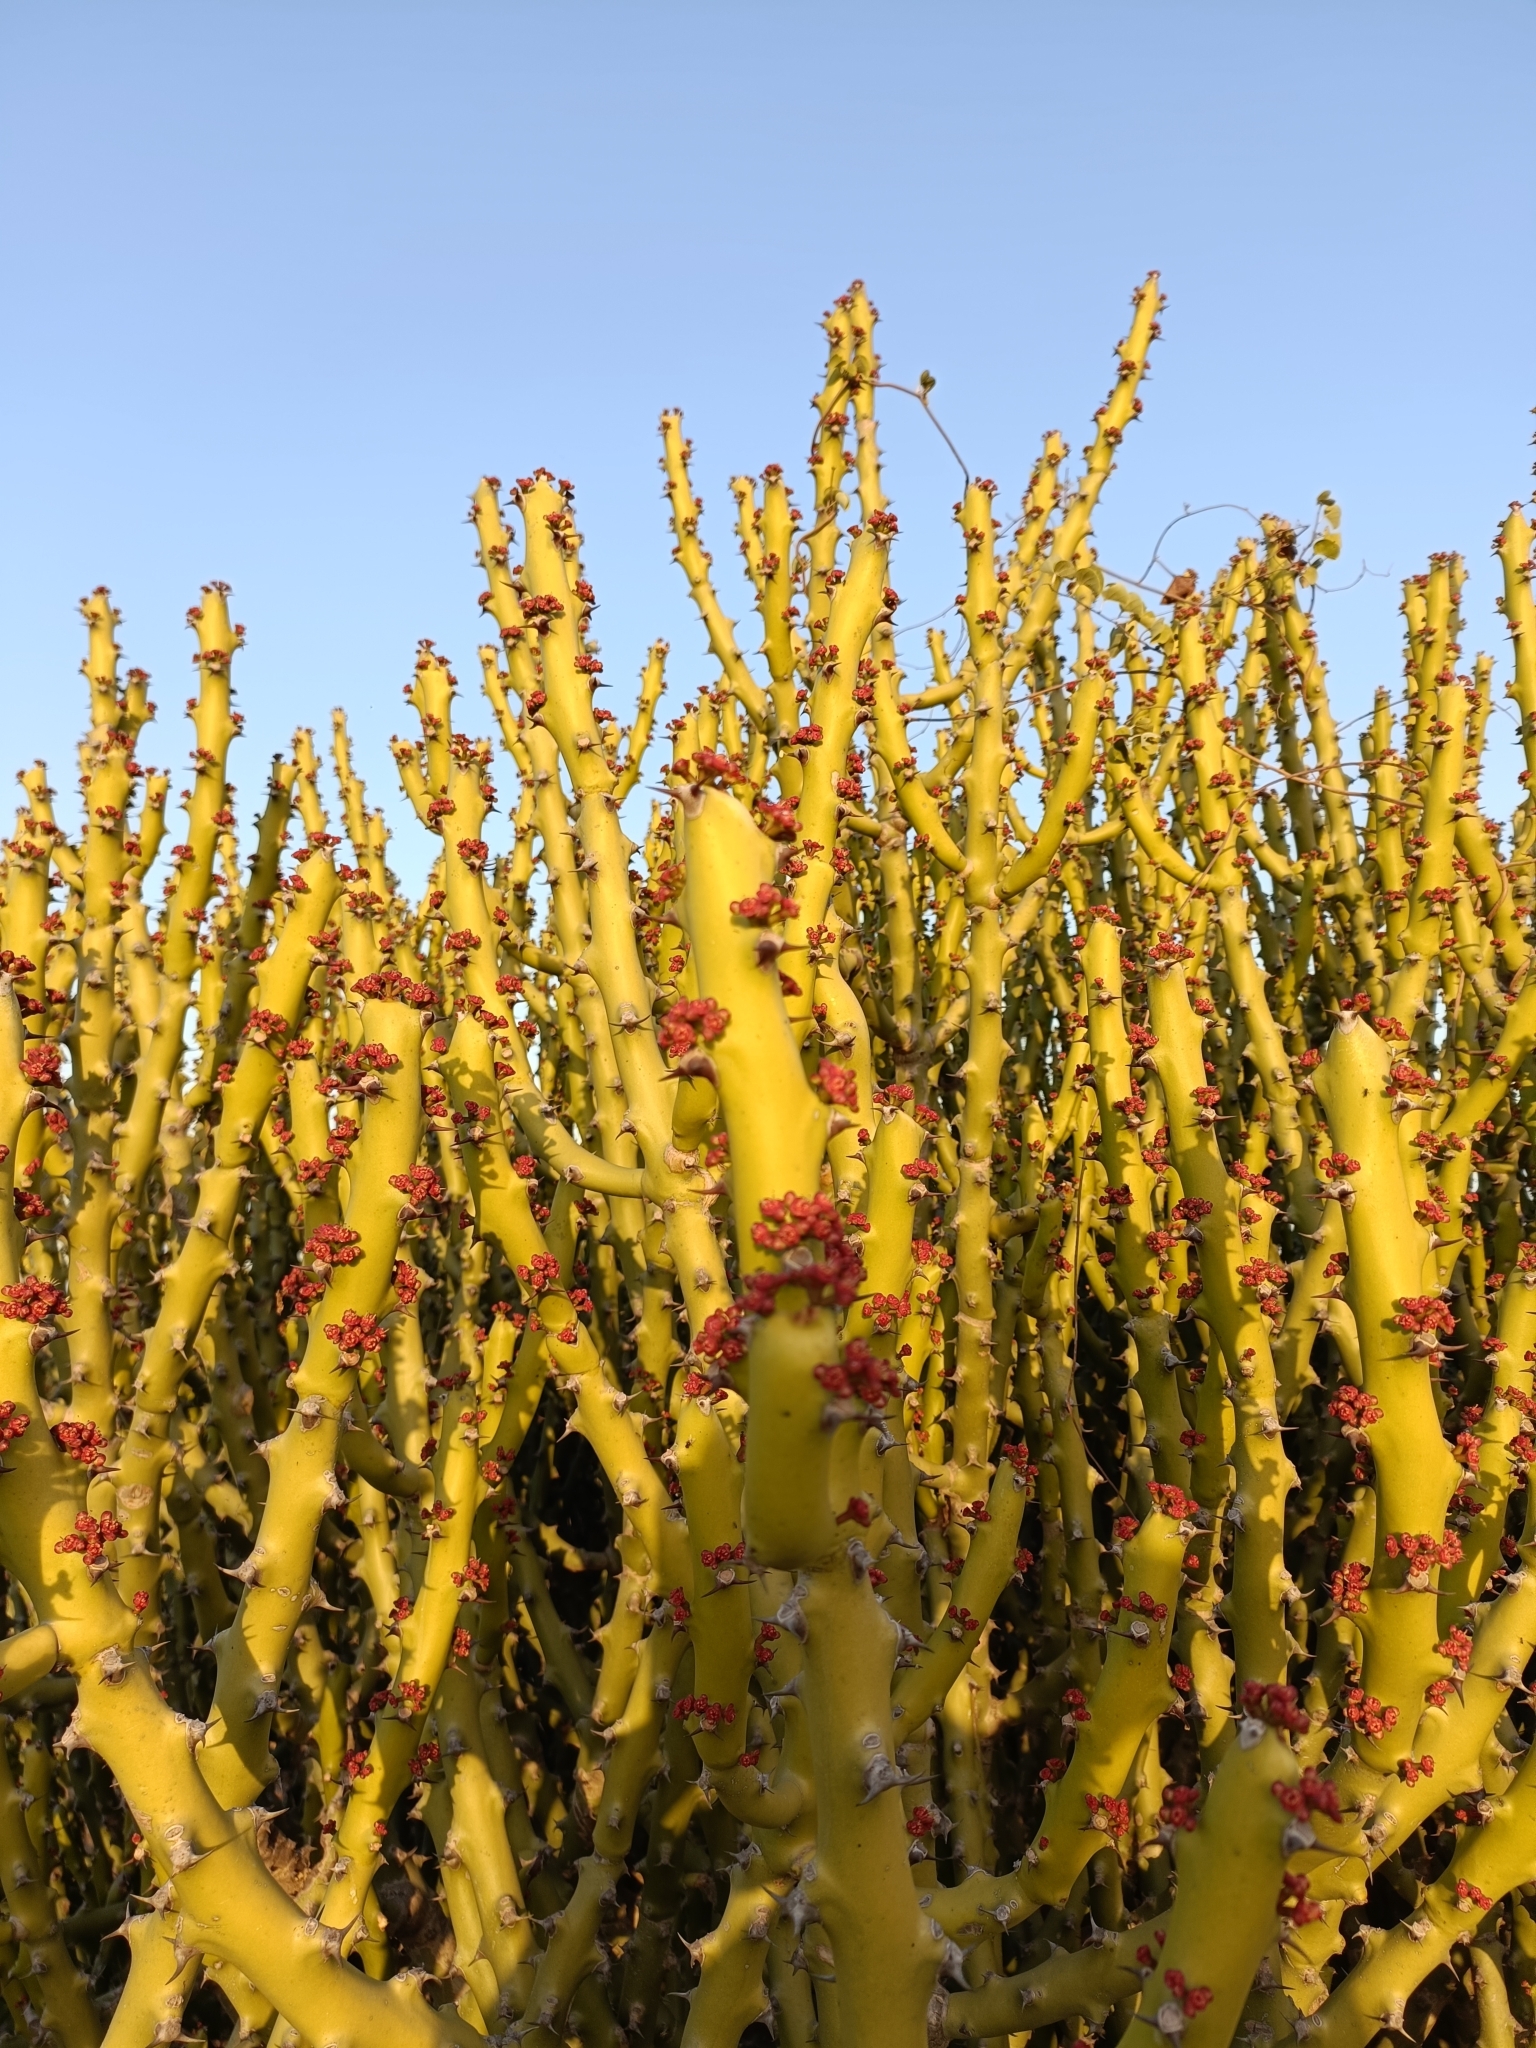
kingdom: Plantae
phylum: Tracheophyta
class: Magnoliopsida
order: Malpighiales
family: Euphorbiaceae
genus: Euphorbia
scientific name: Euphorbia caducifolia
